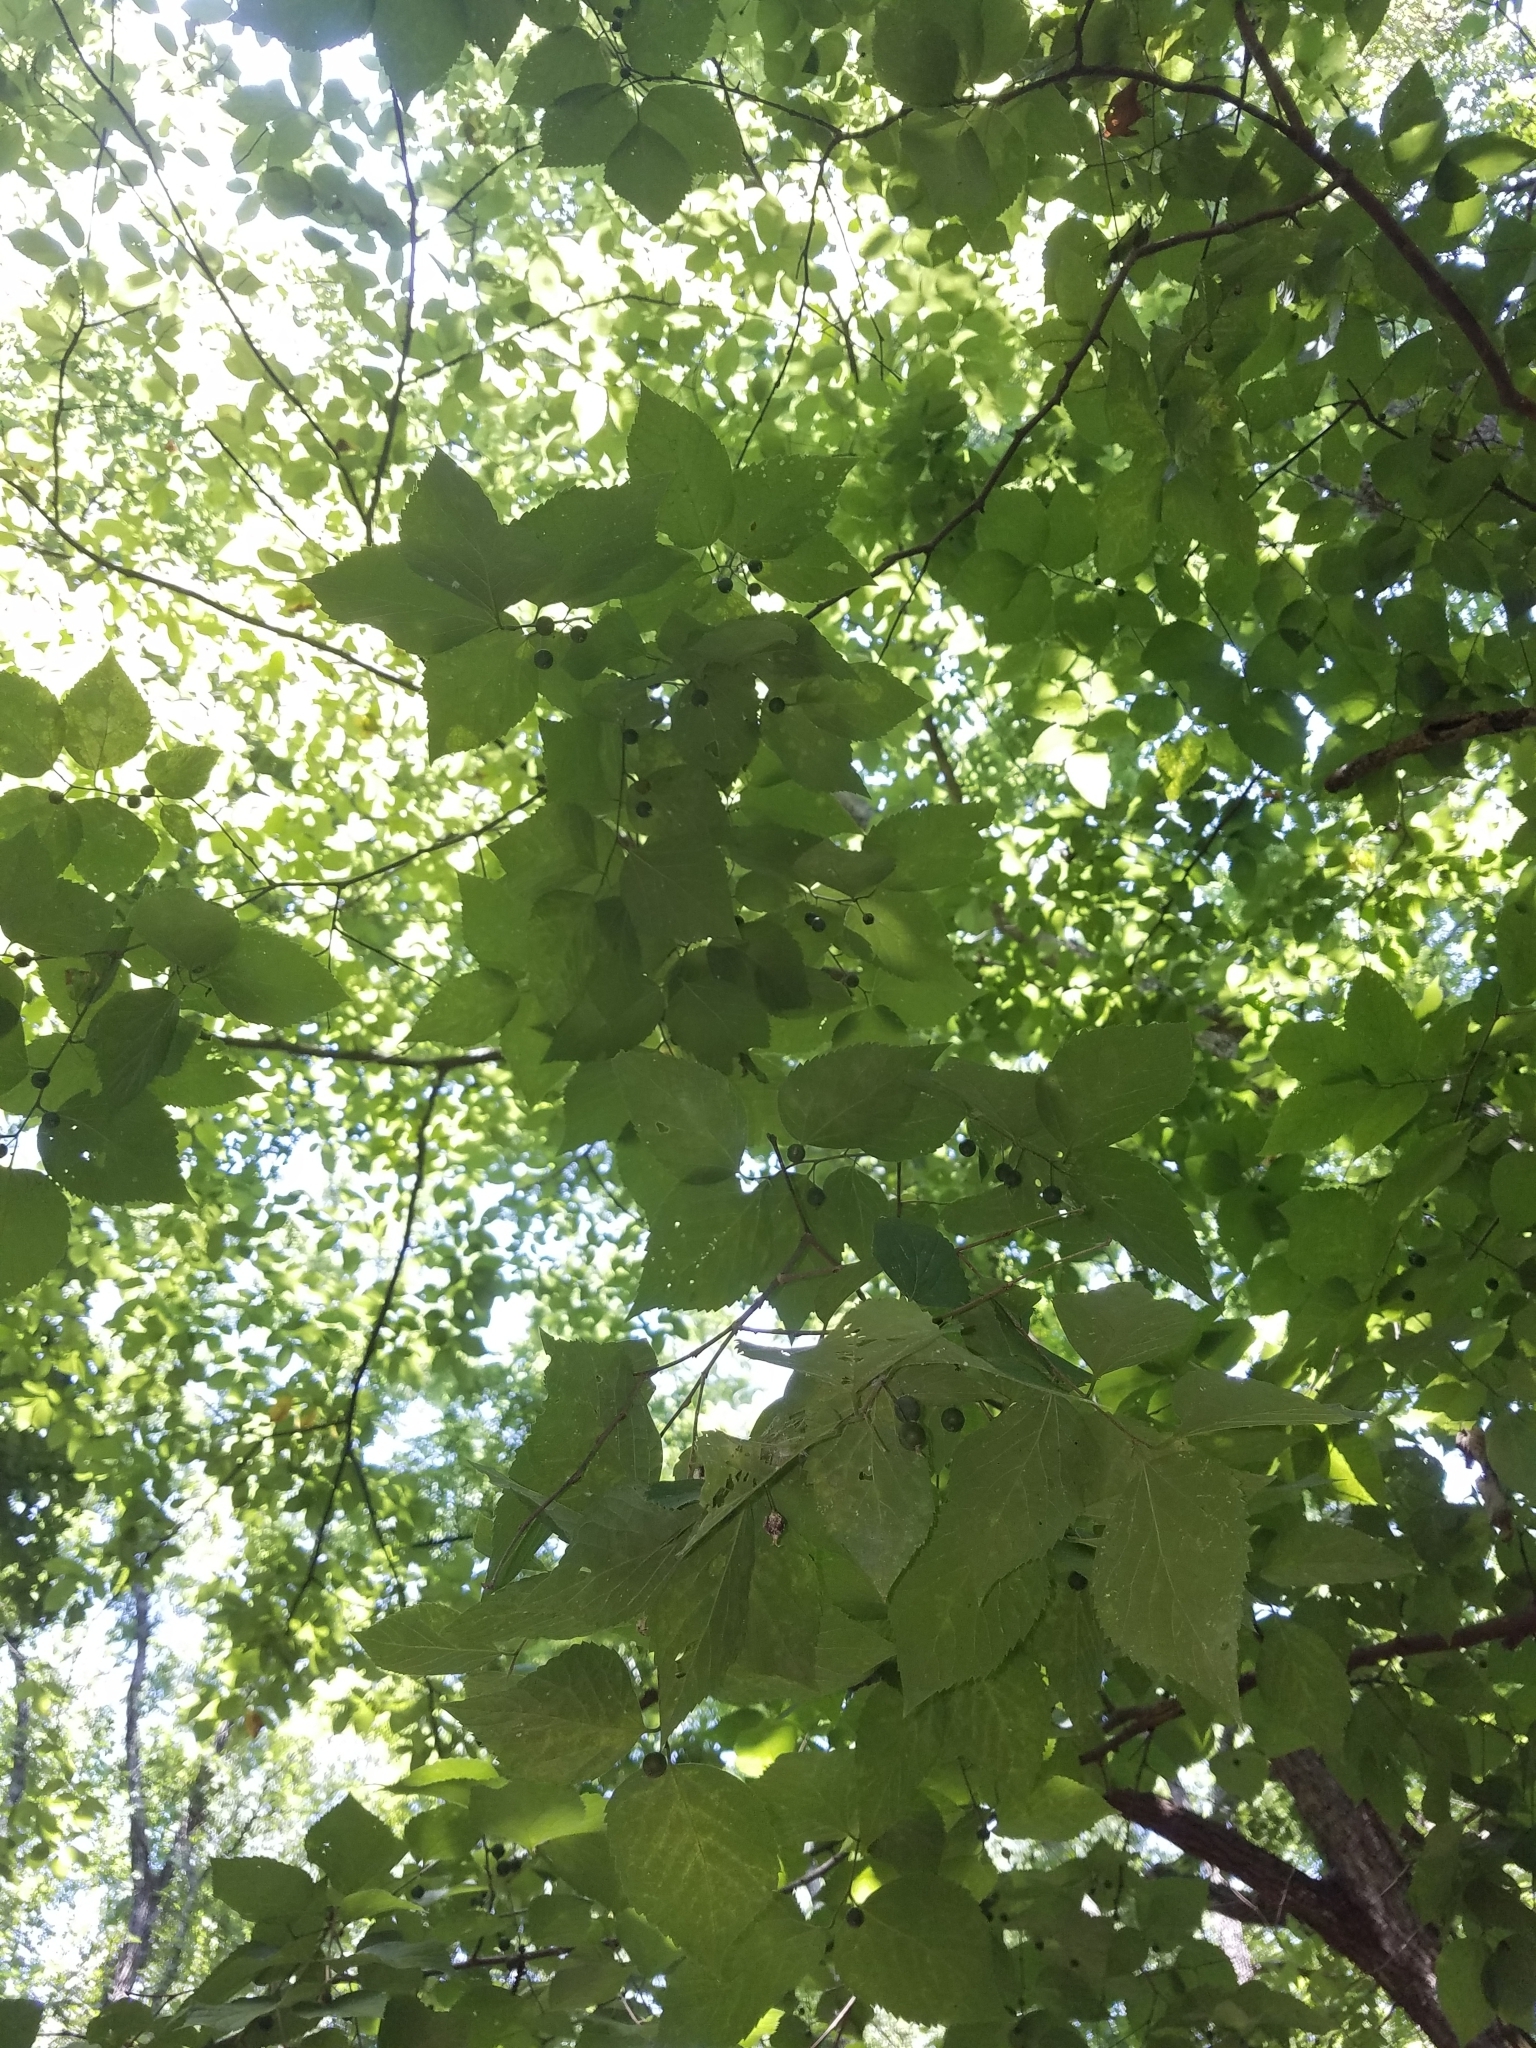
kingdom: Plantae
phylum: Tracheophyta
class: Magnoliopsida
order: Rosales
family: Cannabaceae
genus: Celtis
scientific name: Celtis occidentalis
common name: Common hackberry
